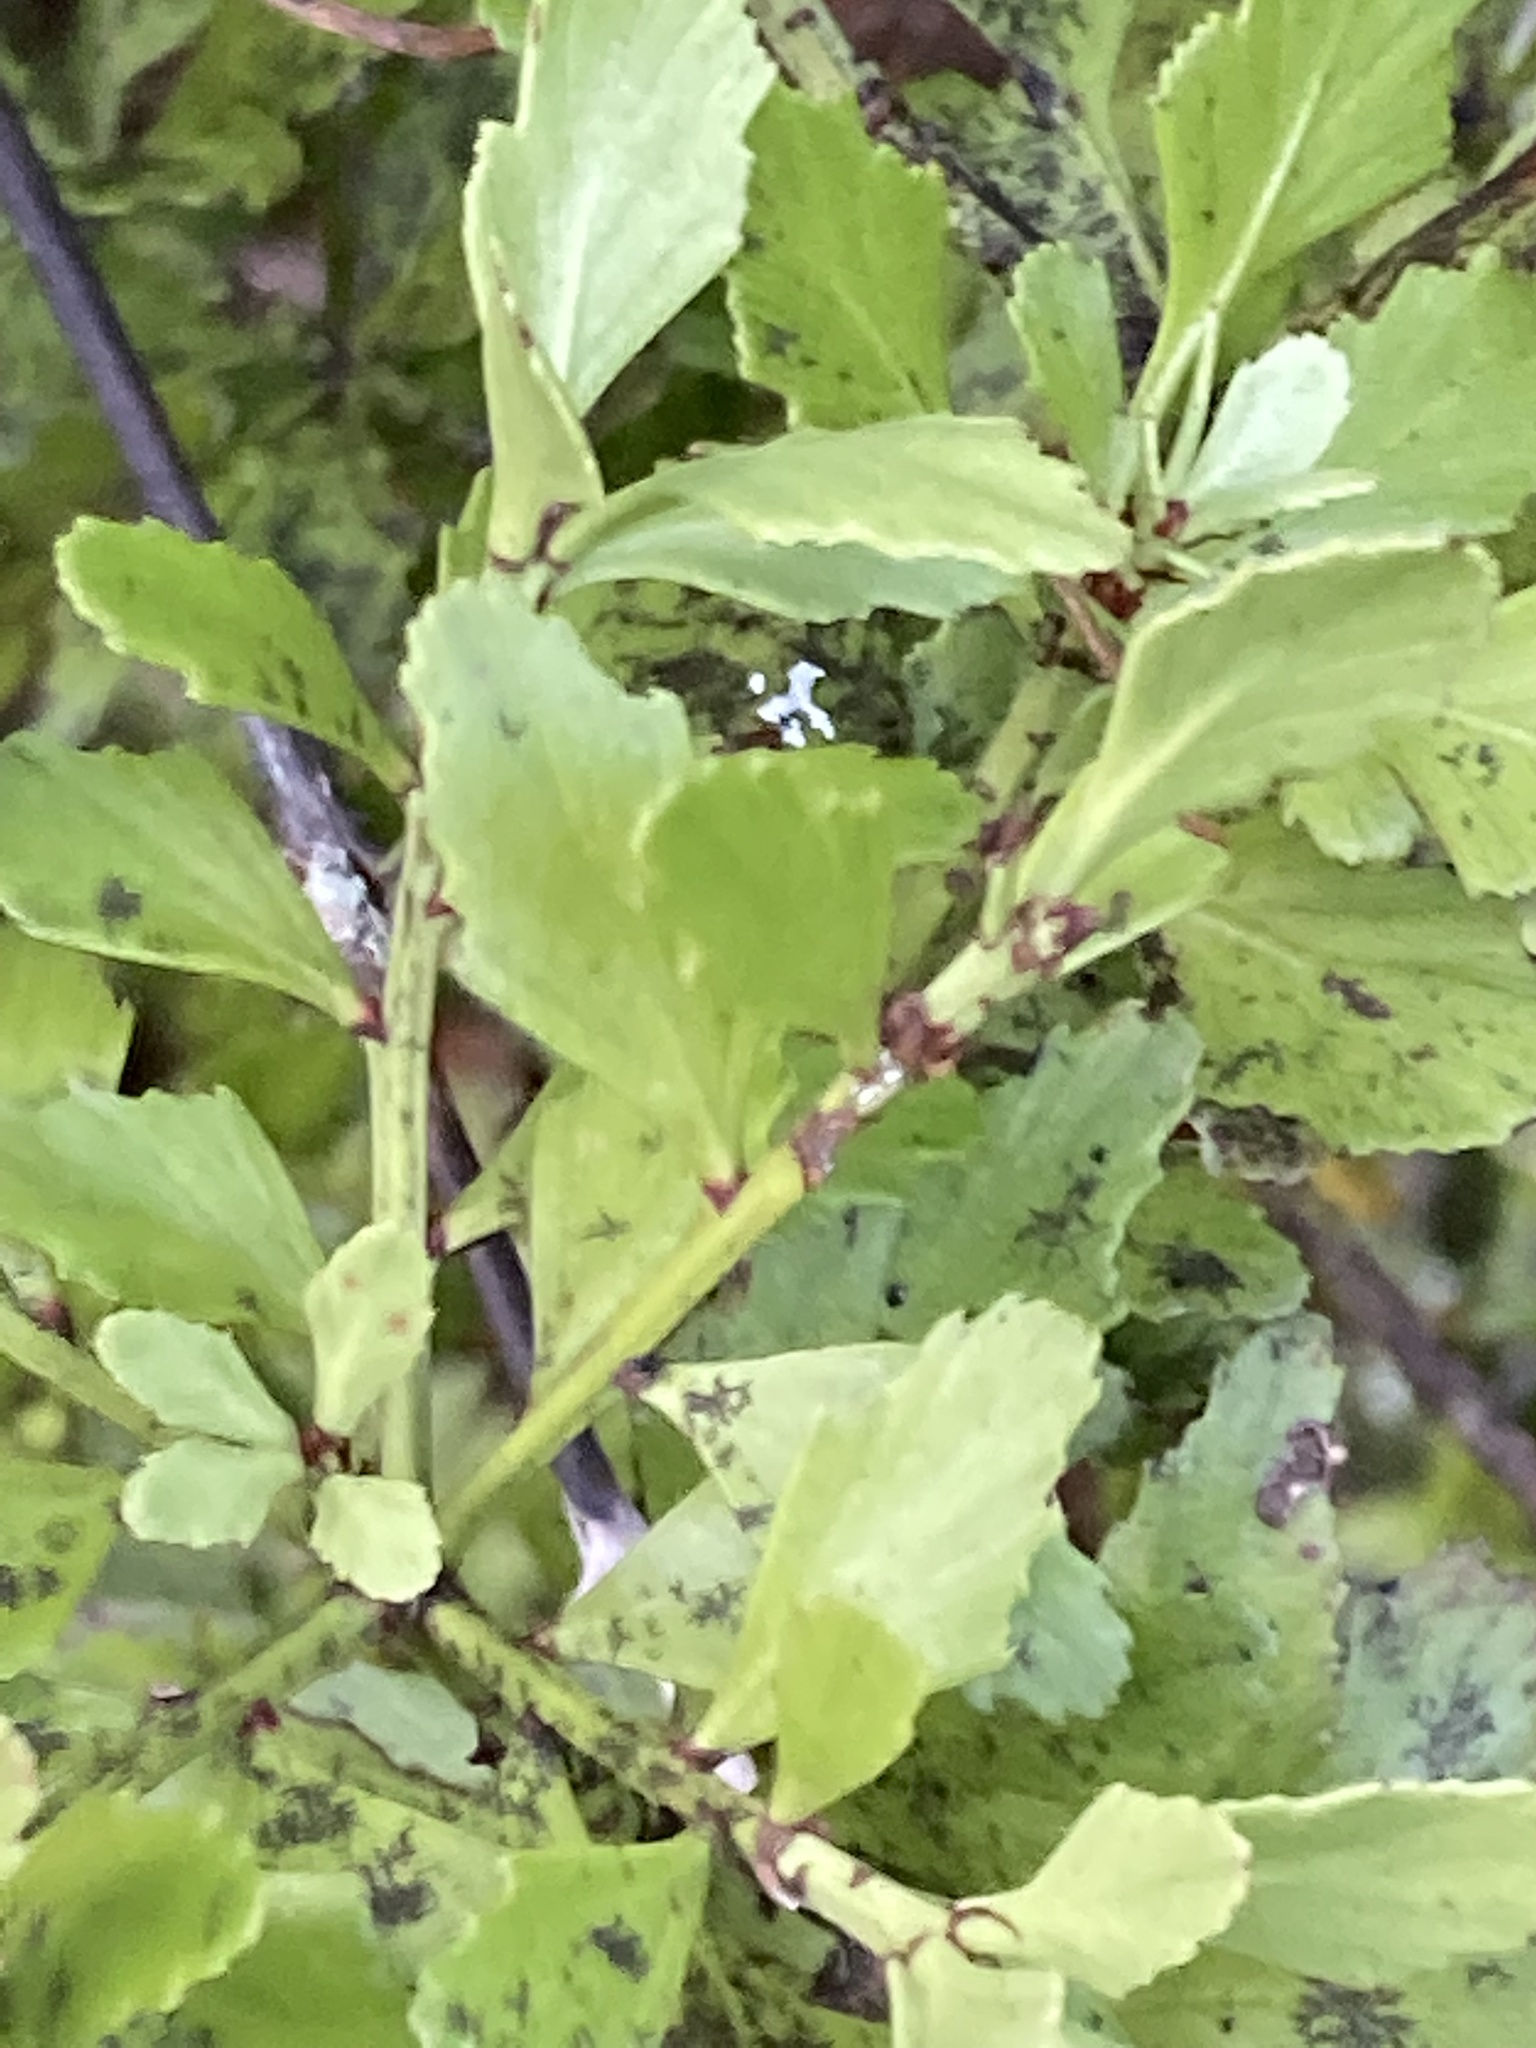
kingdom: Plantae
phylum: Tracheophyta
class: Pinopsida
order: Pinales
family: Phyllocladaceae
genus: Phyllocladus
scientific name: Phyllocladus trichomanoides
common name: Celery pine
